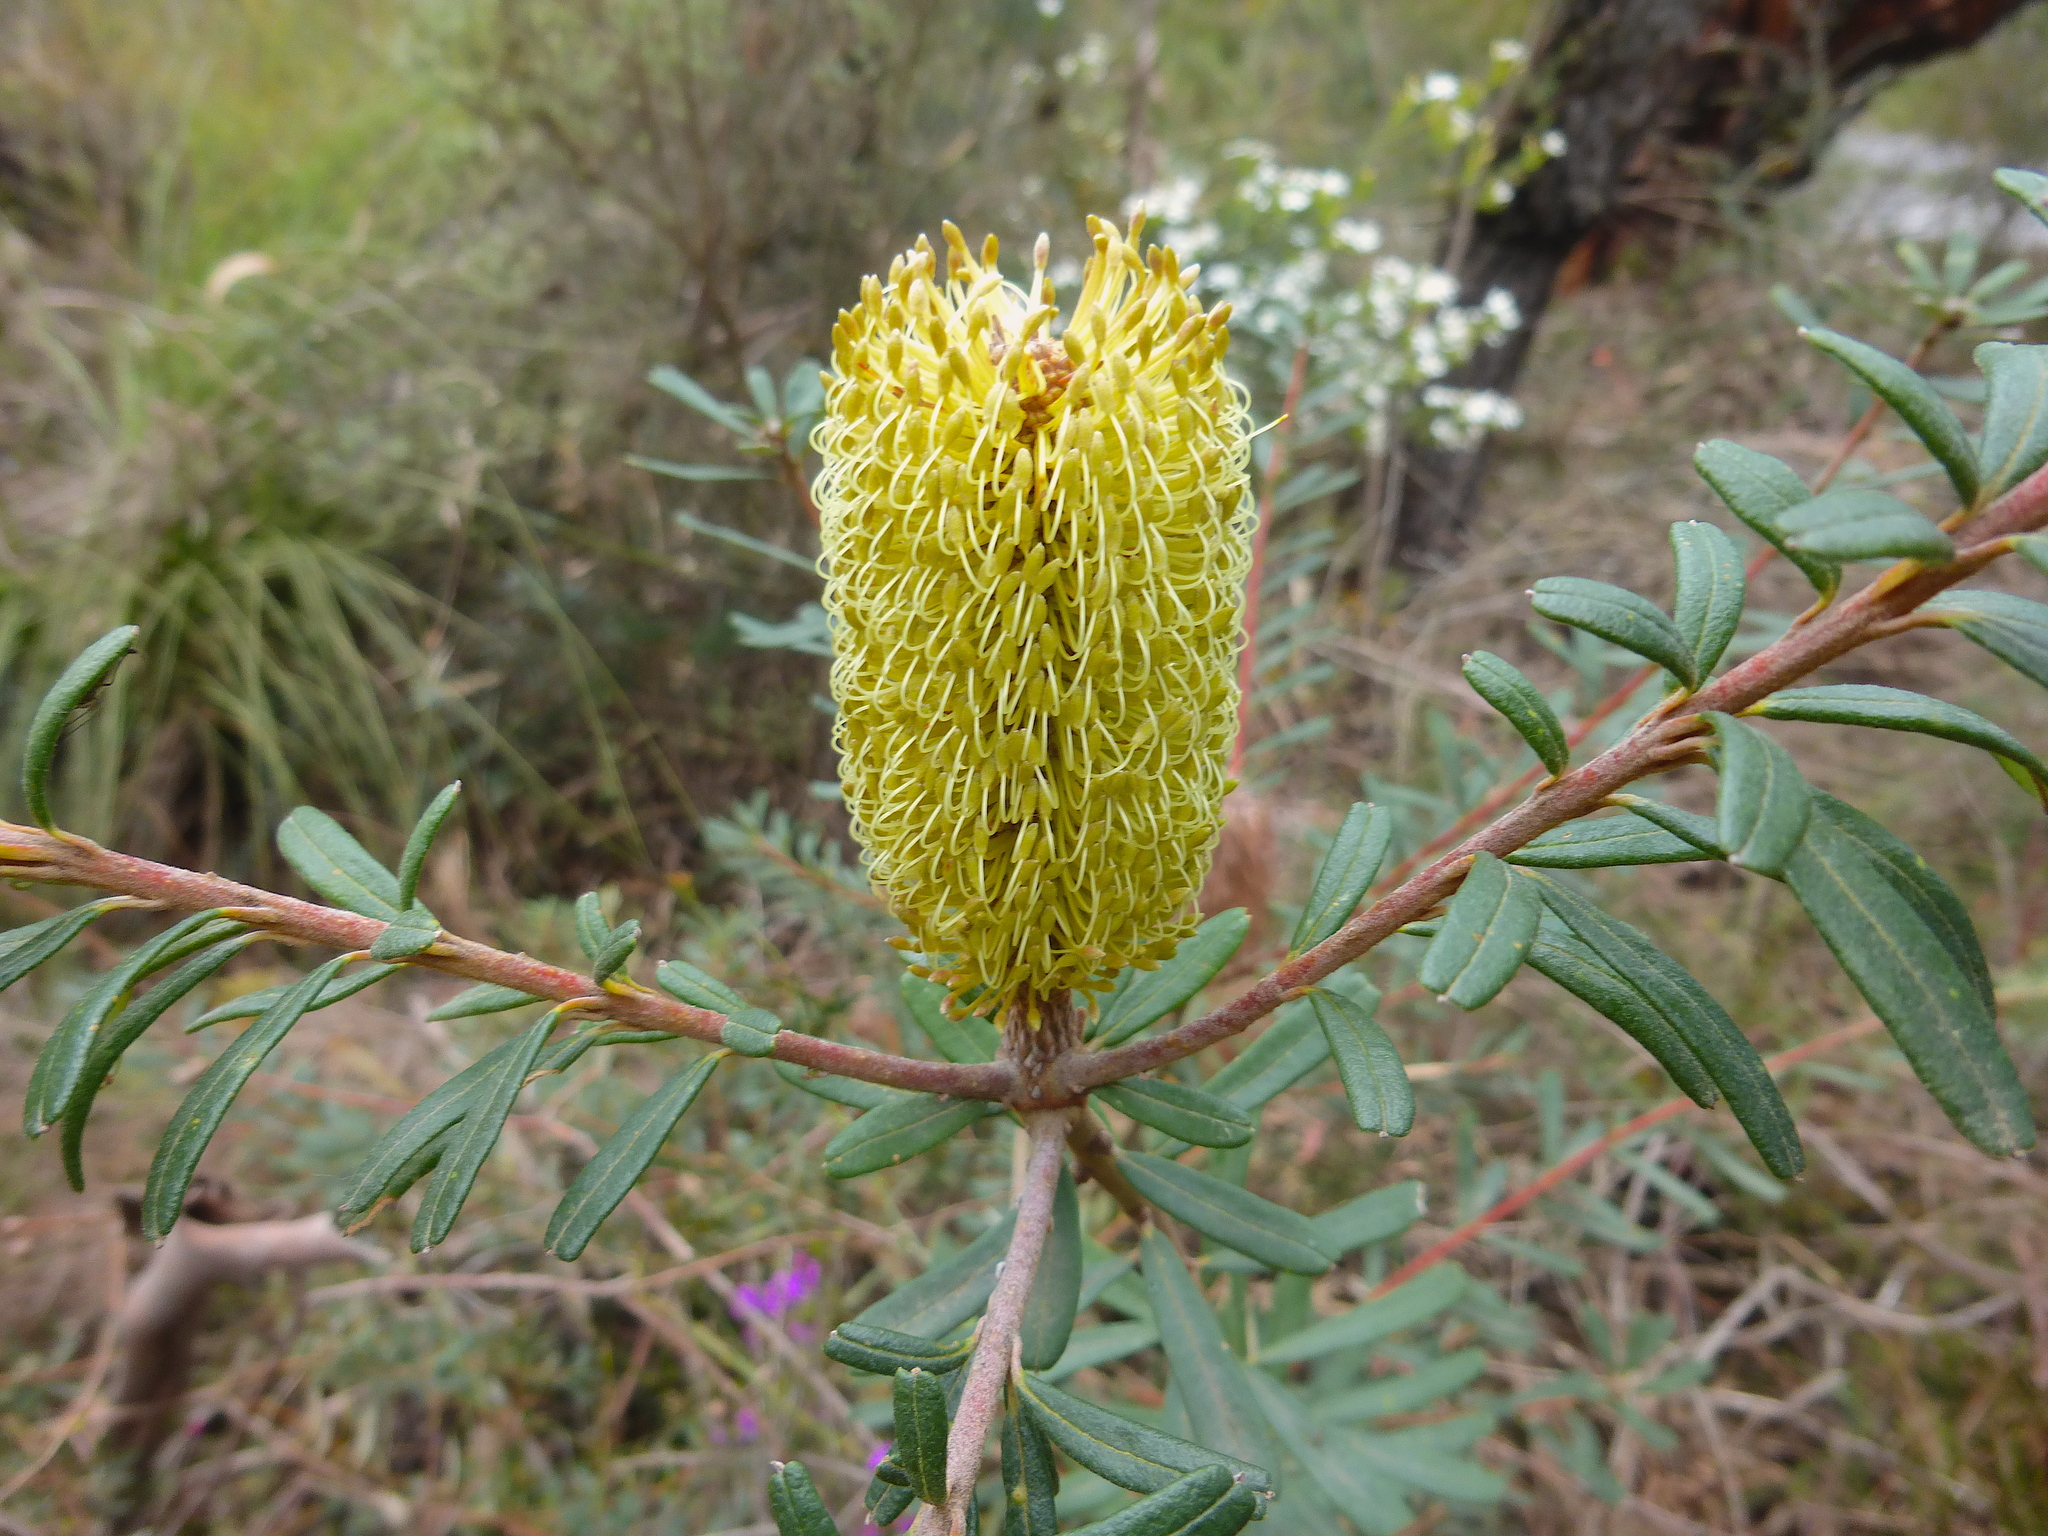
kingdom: Plantae
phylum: Tracheophyta
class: Magnoliopsida
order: Proteales
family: Proteaceae
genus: Banksia
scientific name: Banksia marginata
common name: Silver banksia
